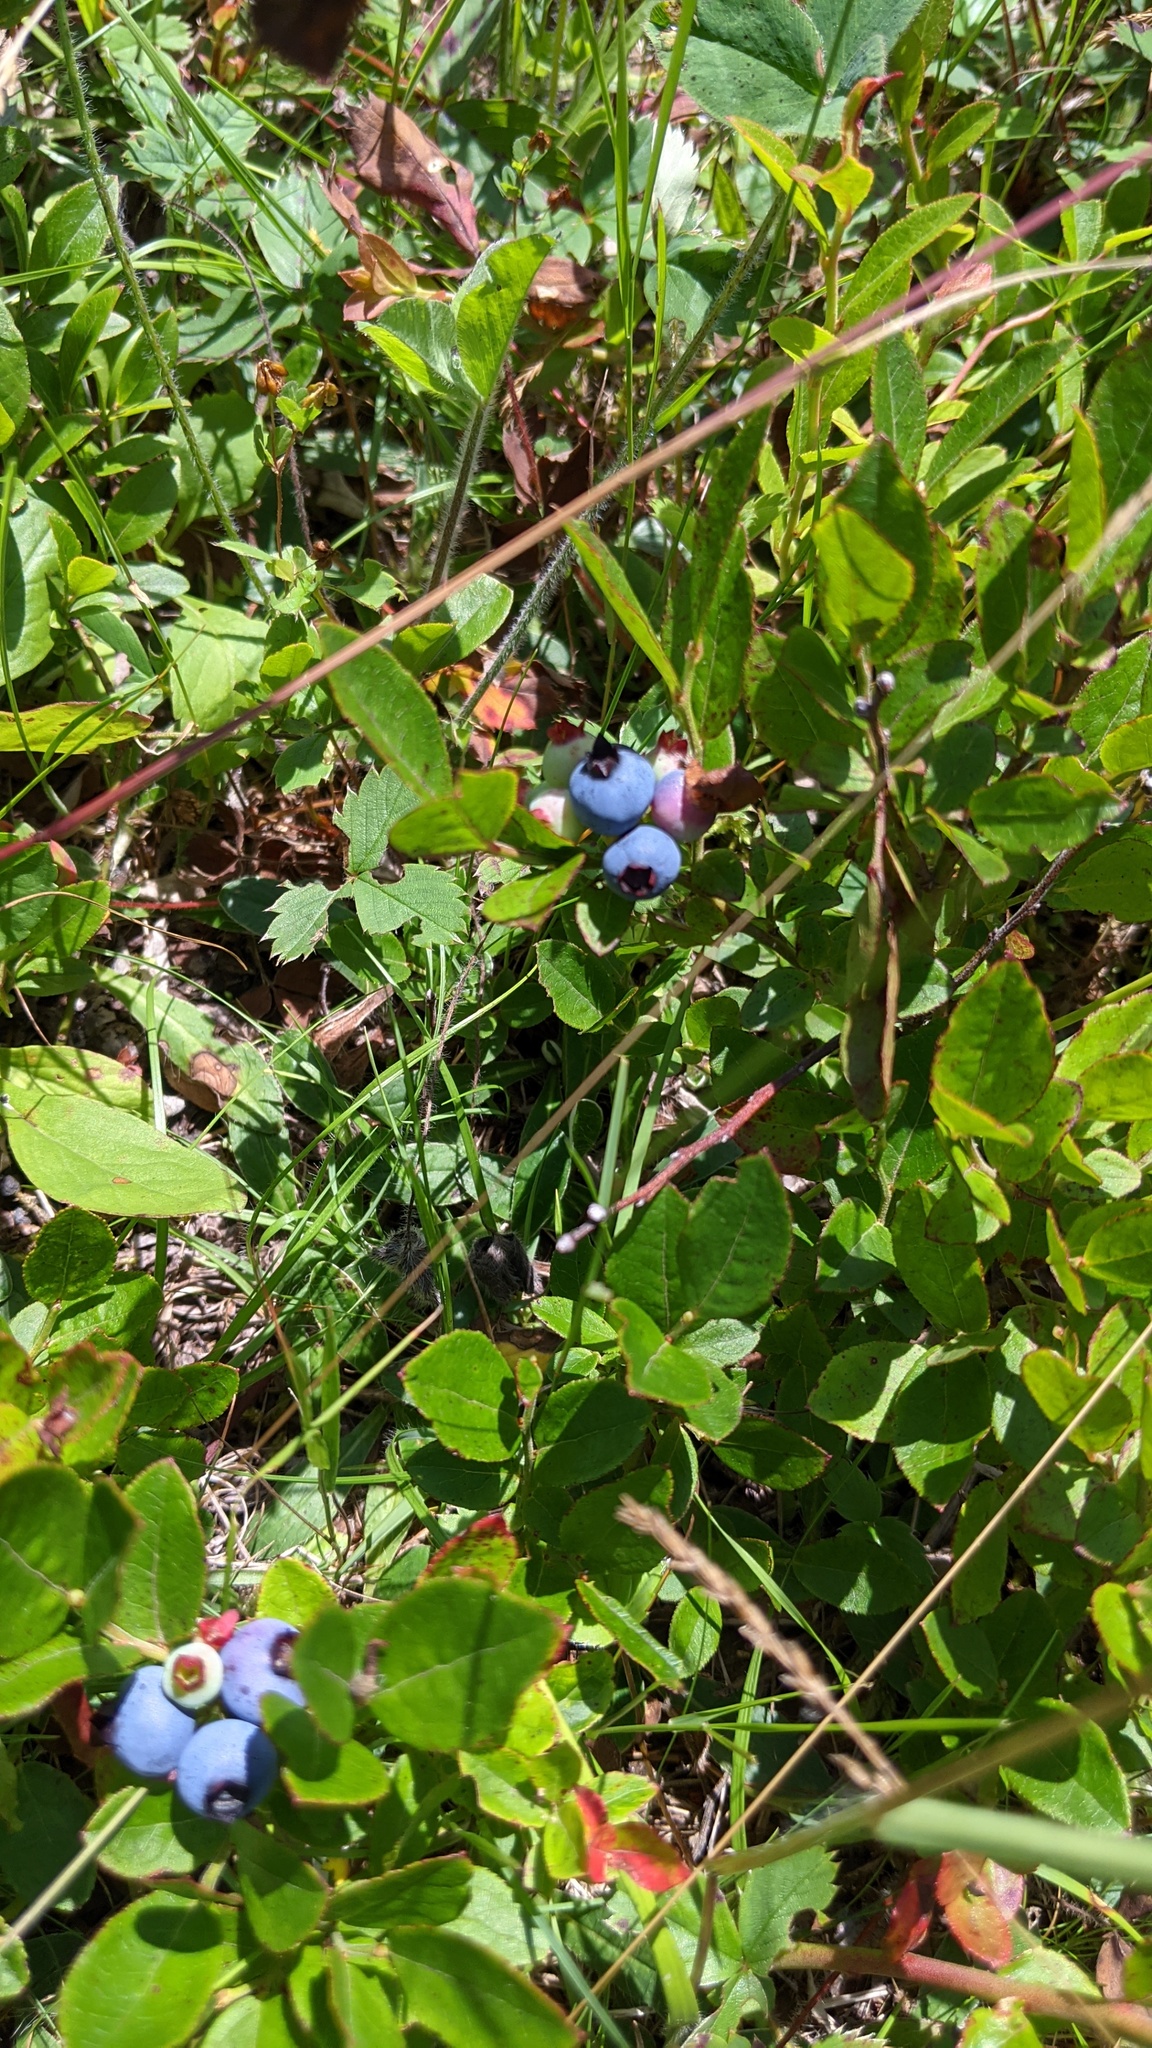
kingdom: Plantae
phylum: Tracheophyta
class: Magnoliopsida
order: Ericales
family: Ericaceae
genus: Vaccinium
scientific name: Vaccinium angustifolium
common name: Early lowbush blueberry
